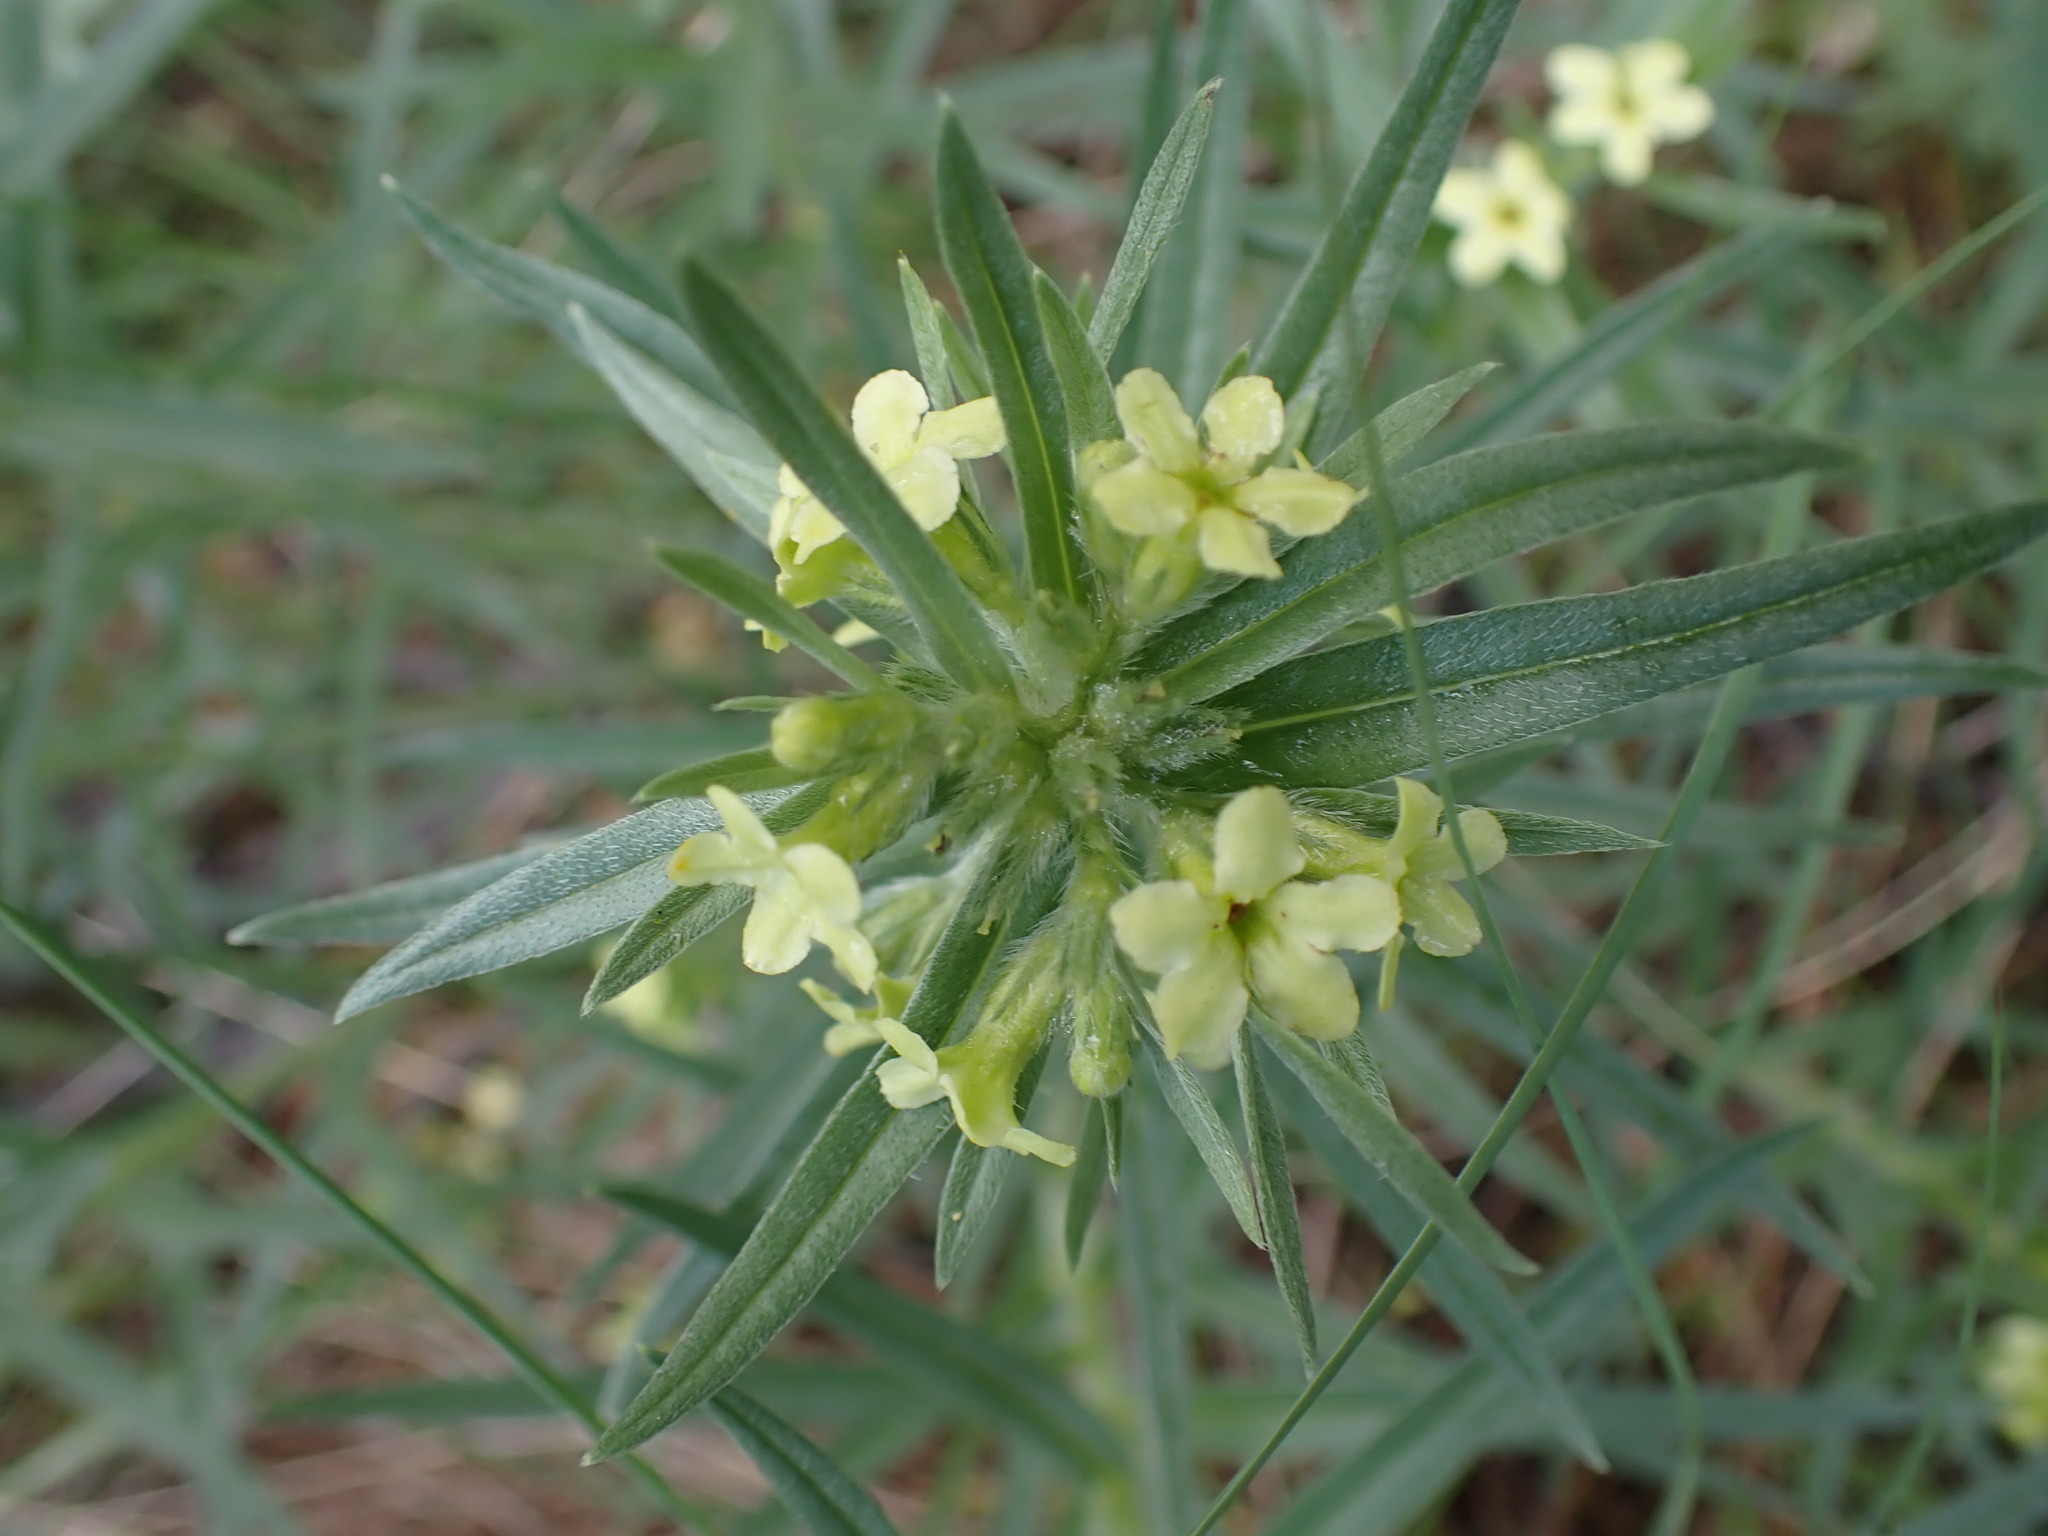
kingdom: Plantae
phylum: Tracheophyta
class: Magnoliopsida
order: Boraginales
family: Boraginaceae
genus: Lithospermum
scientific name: Lithospermum ruderale
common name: Western gromwell
